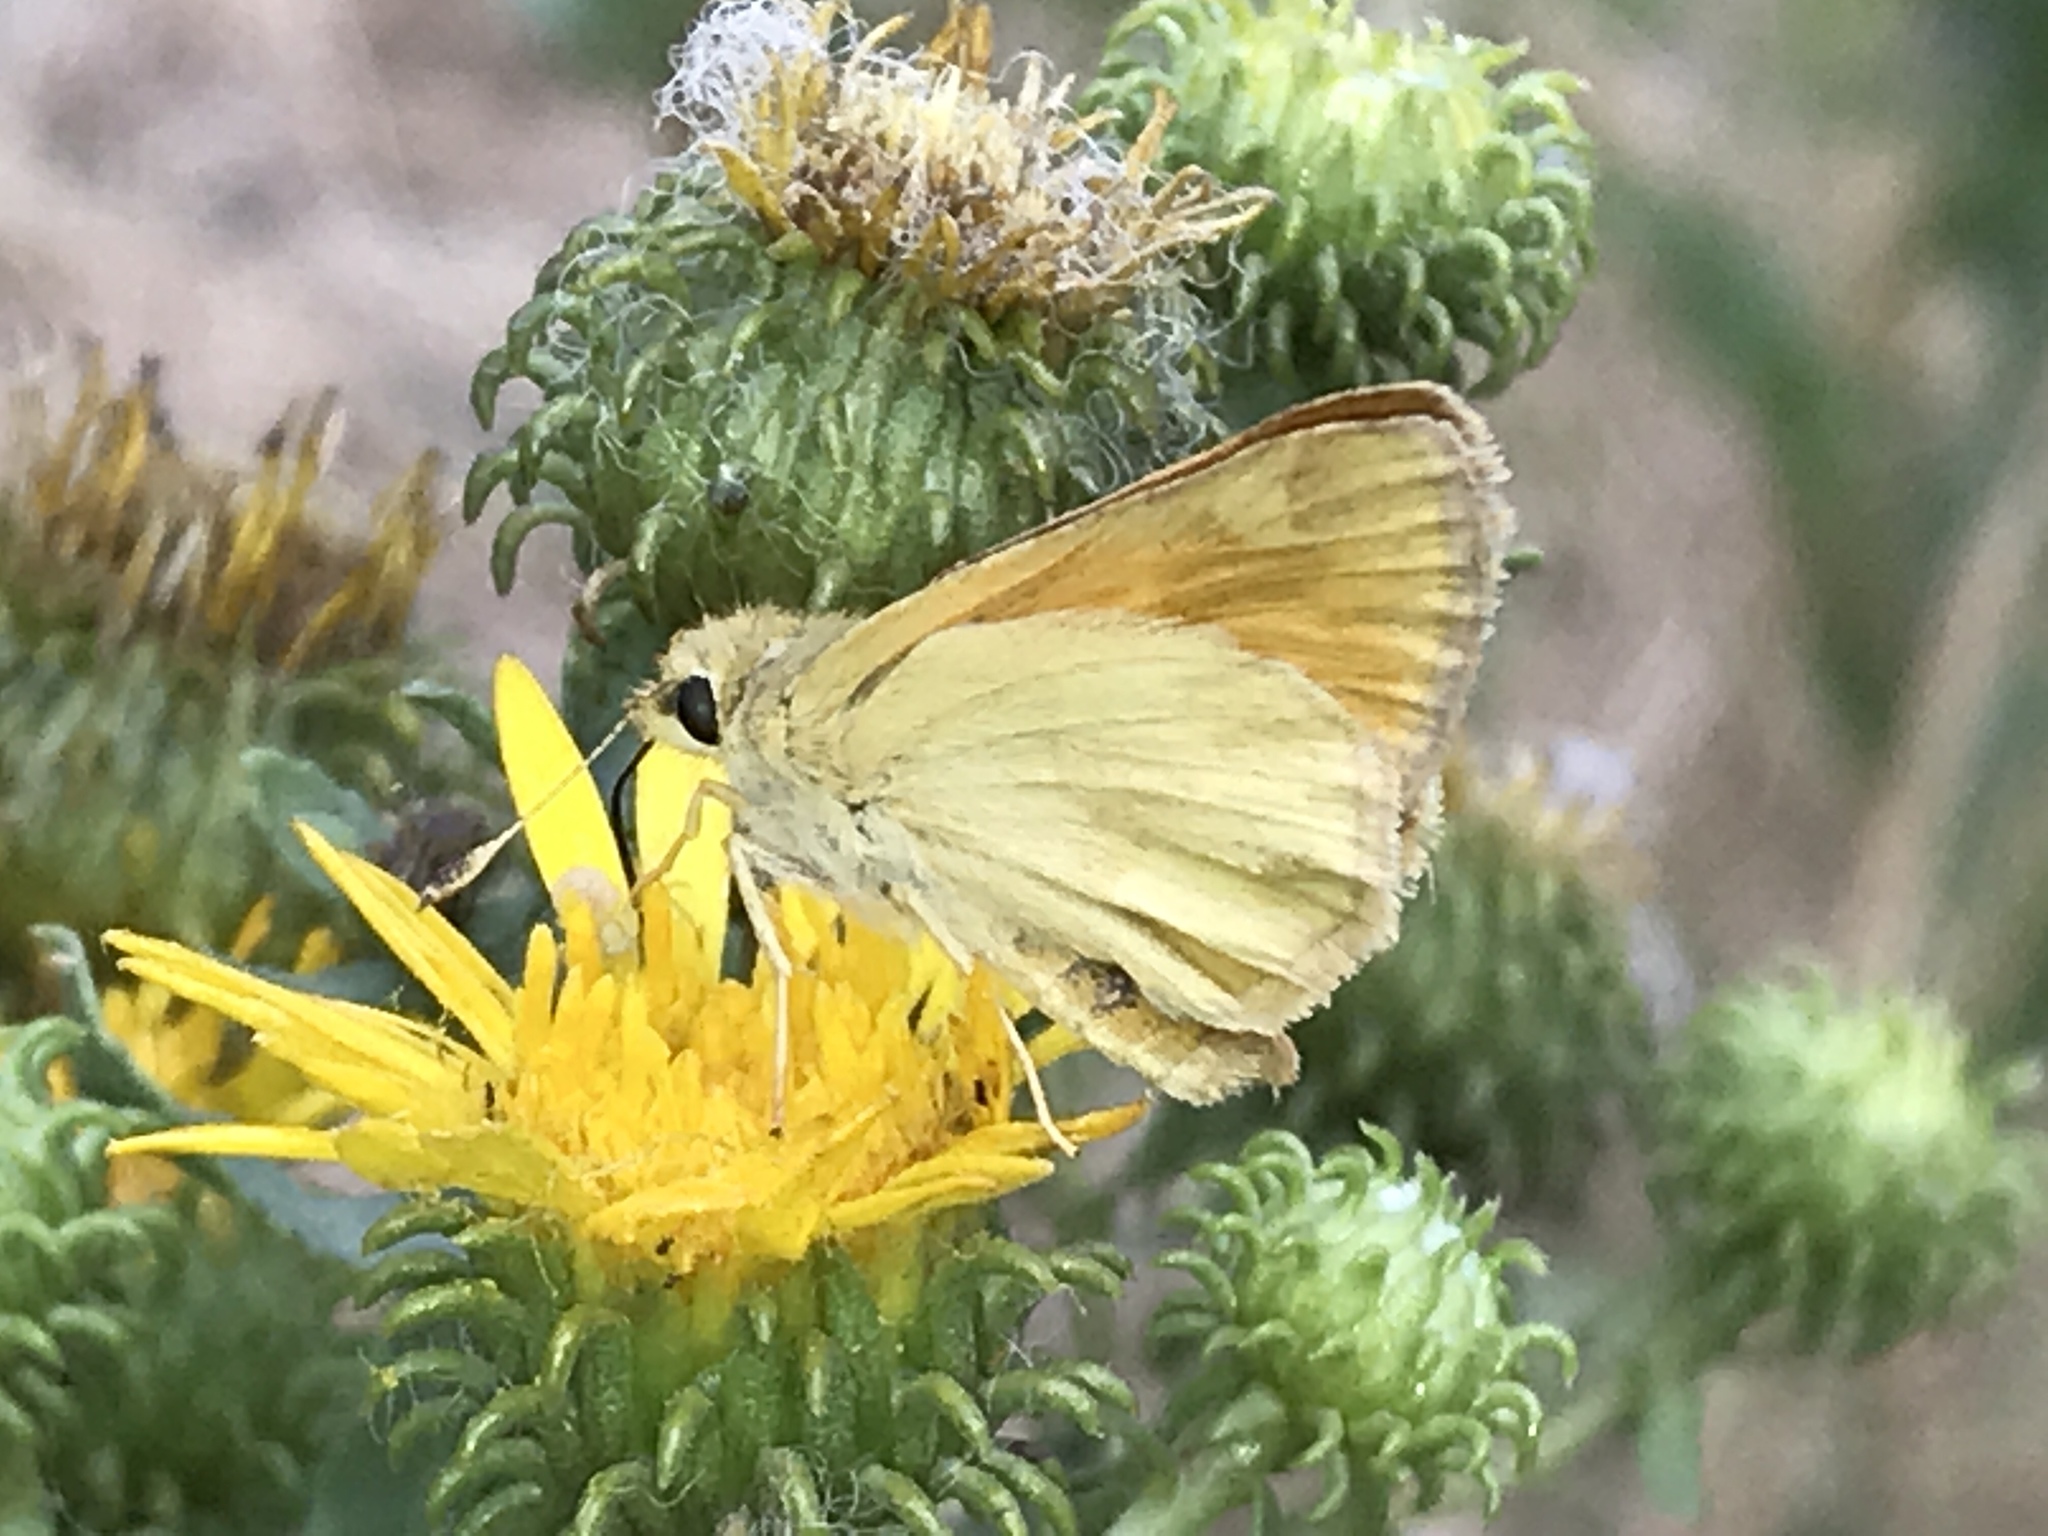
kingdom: Animalia
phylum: Arthropoda
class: Insecta
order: Lepidoptera
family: Hesperiidae
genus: Ochlodes
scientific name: Ochlodes sylvanoides
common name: Woodland skipper
